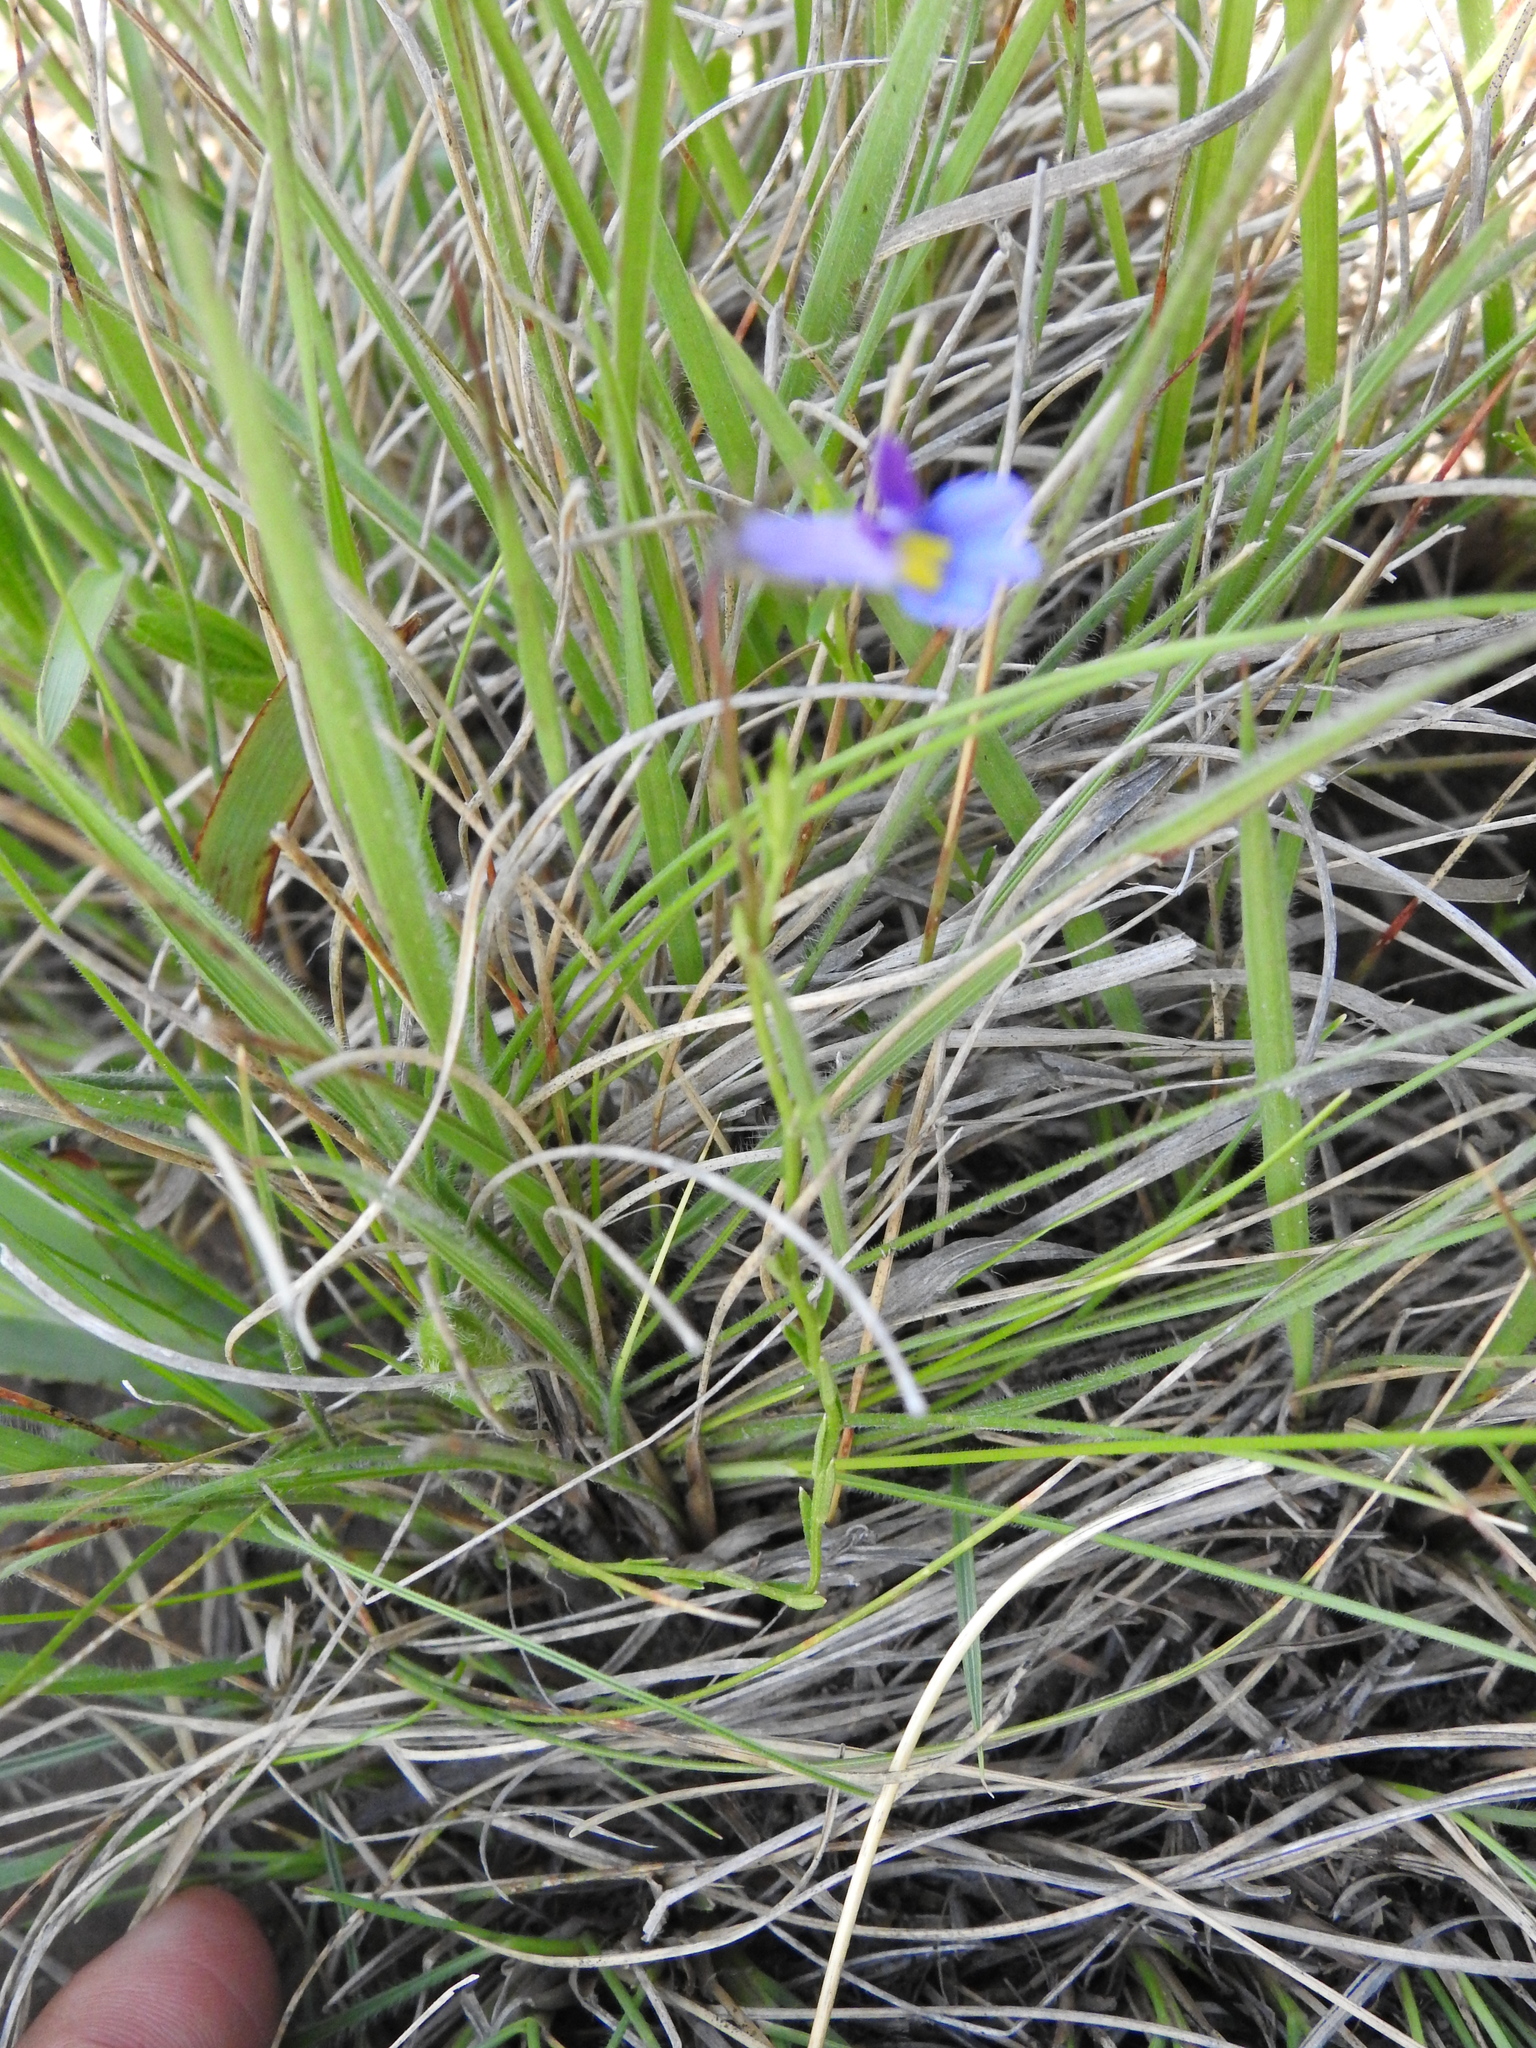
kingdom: Plantae
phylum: Tracheophyta
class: Magnoliopsida
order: Asterales
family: Campanulaceae
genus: Monopsis
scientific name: Monopsis decipiens
